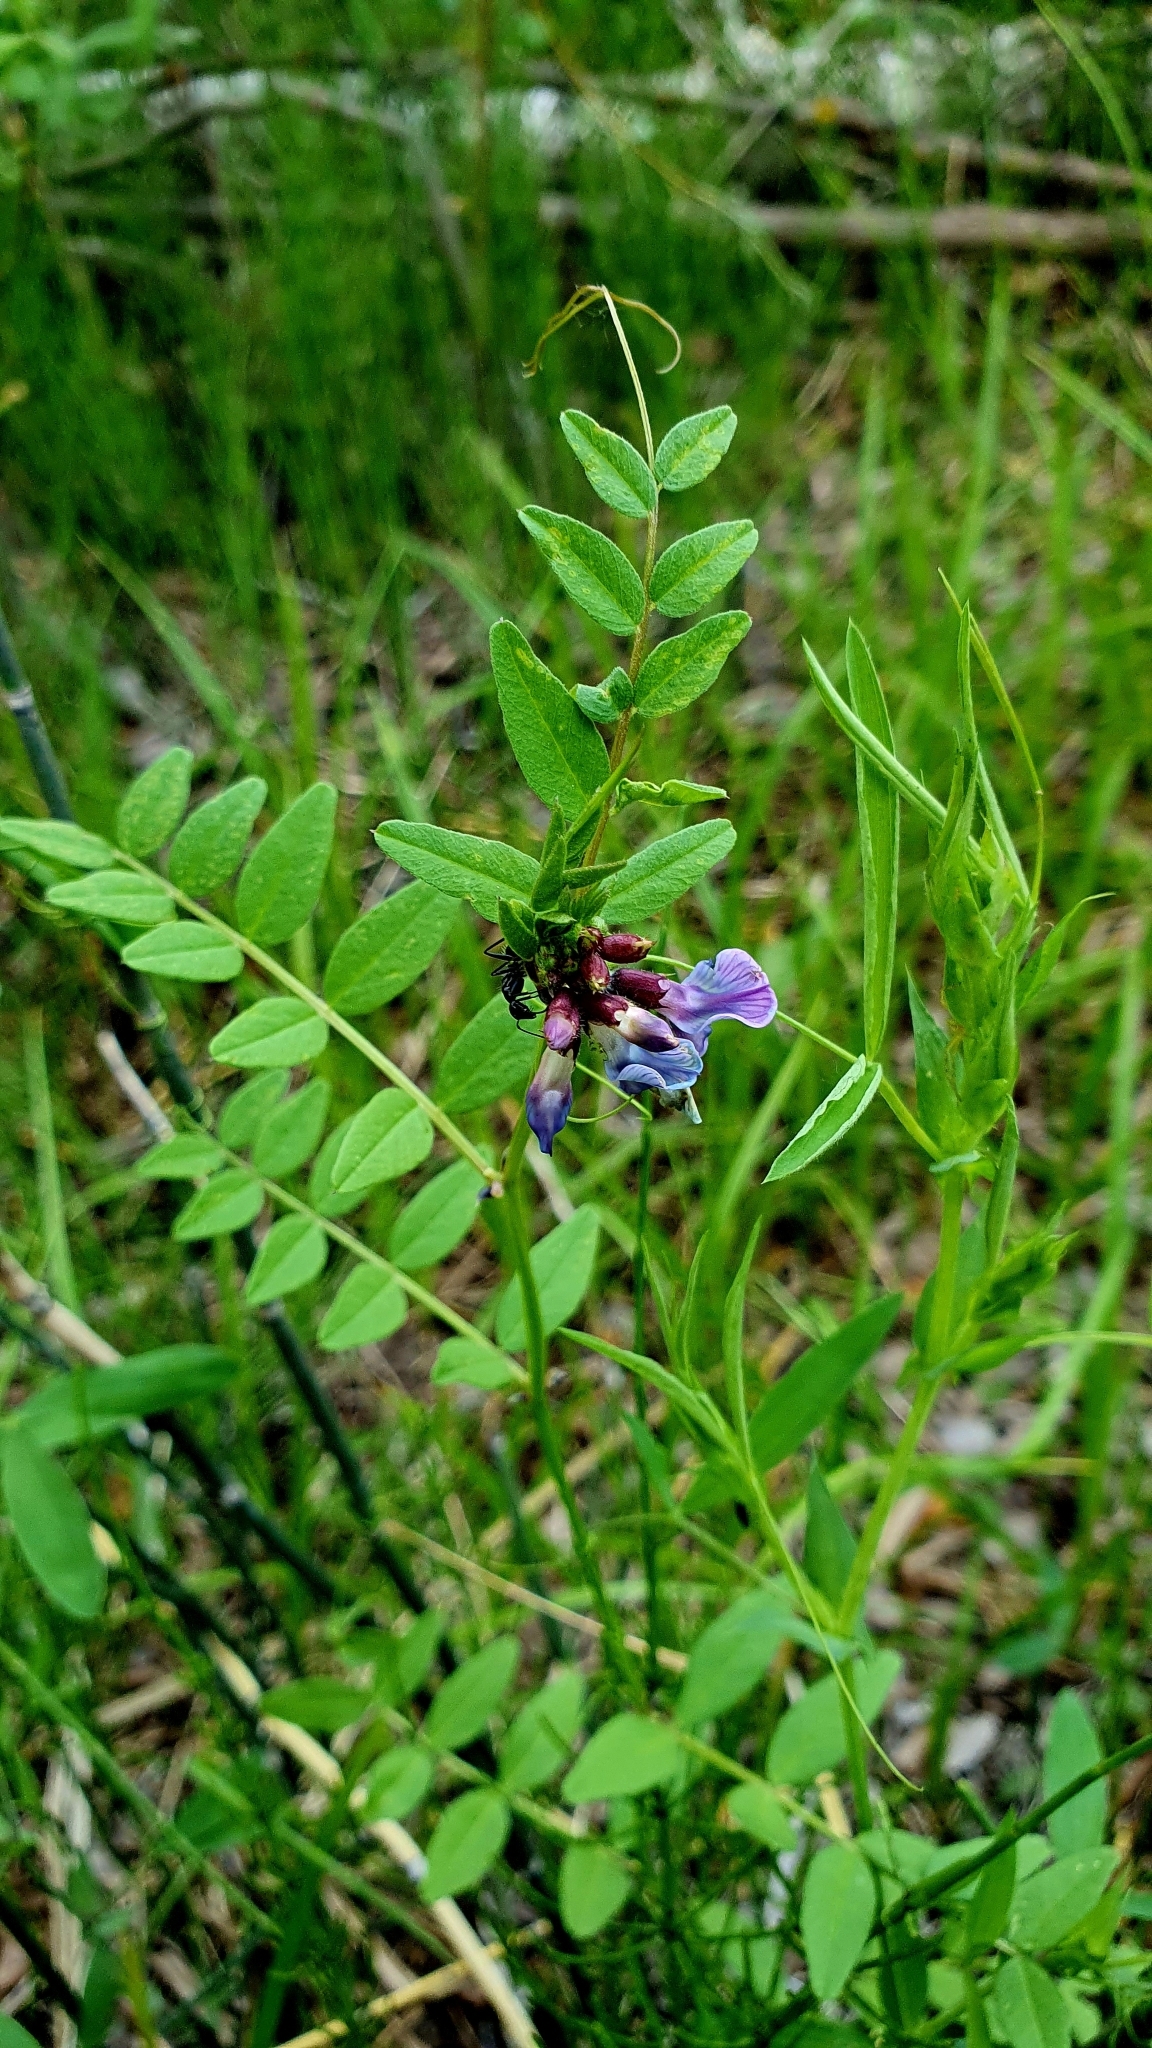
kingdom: Plantae
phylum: Tracheophyta
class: Magnoliopsida
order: Fabales
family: Fabaceae
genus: Vicia
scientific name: Vicia sepium
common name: Bush vetch
